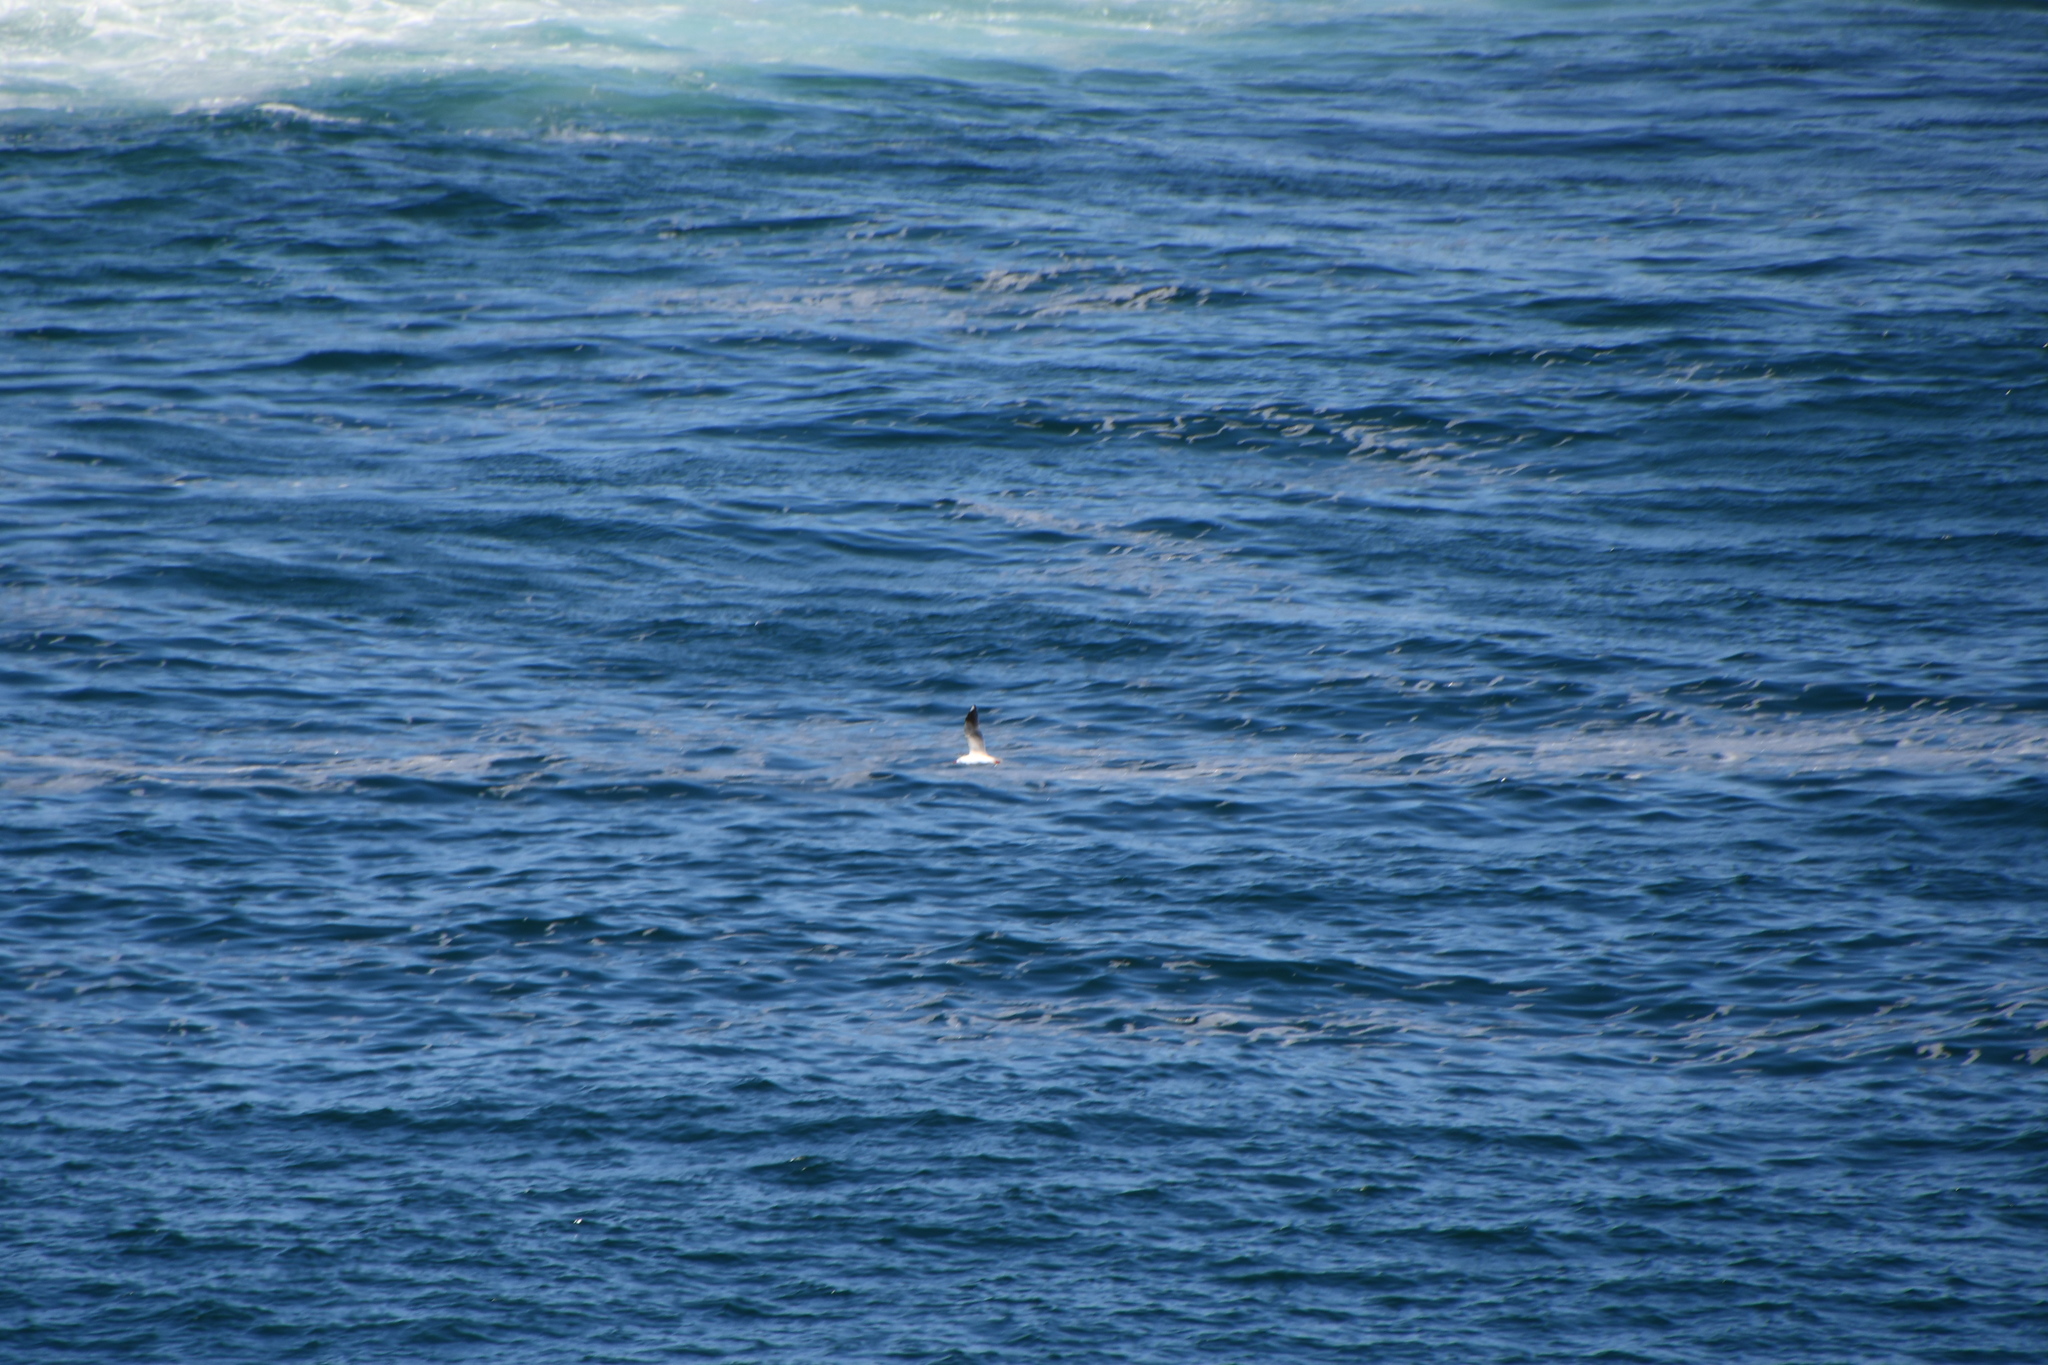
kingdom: Animalia
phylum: Chordata
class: Aves
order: Charadriiformes
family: Laridae
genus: Chroicocephalus
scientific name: Chroicocephalus novaehollandiae
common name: Silver gull
